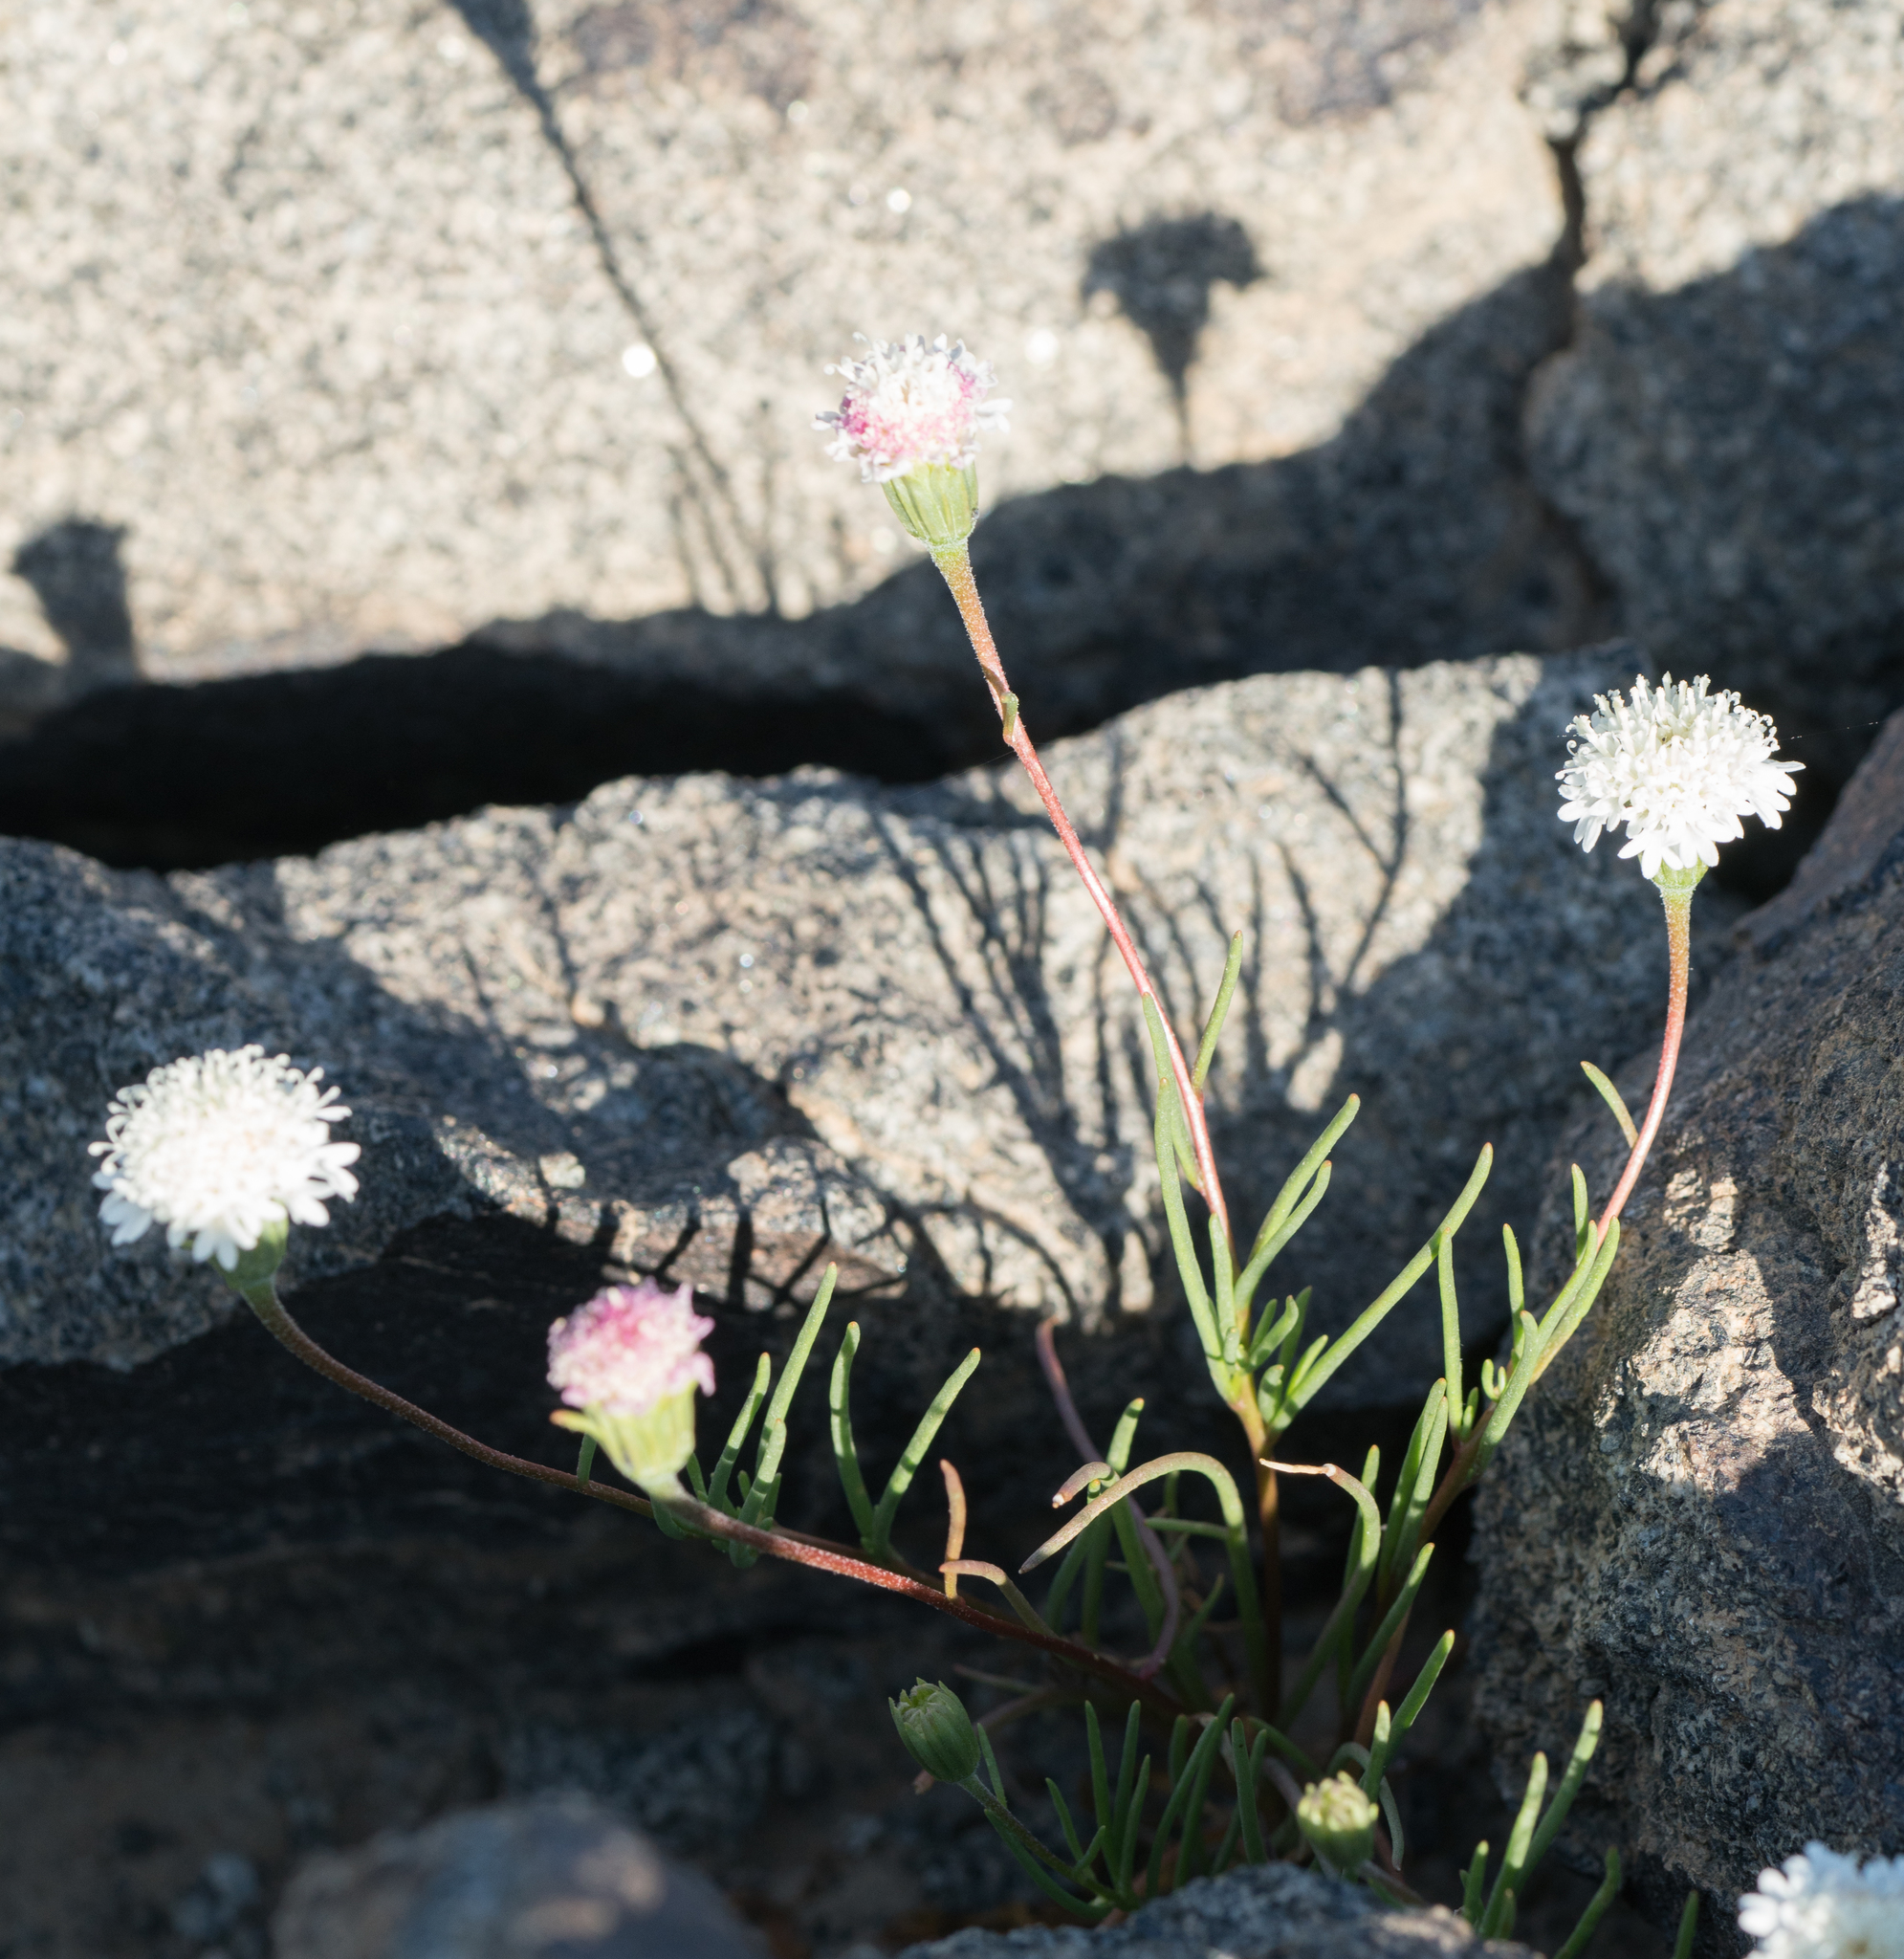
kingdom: Plantae
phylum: Tracheophyta
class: Magnoliopsida
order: Asterales
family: Asteraceae
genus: Chaenactis
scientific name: Chaenactis fremontii
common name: Fremont pincushion
